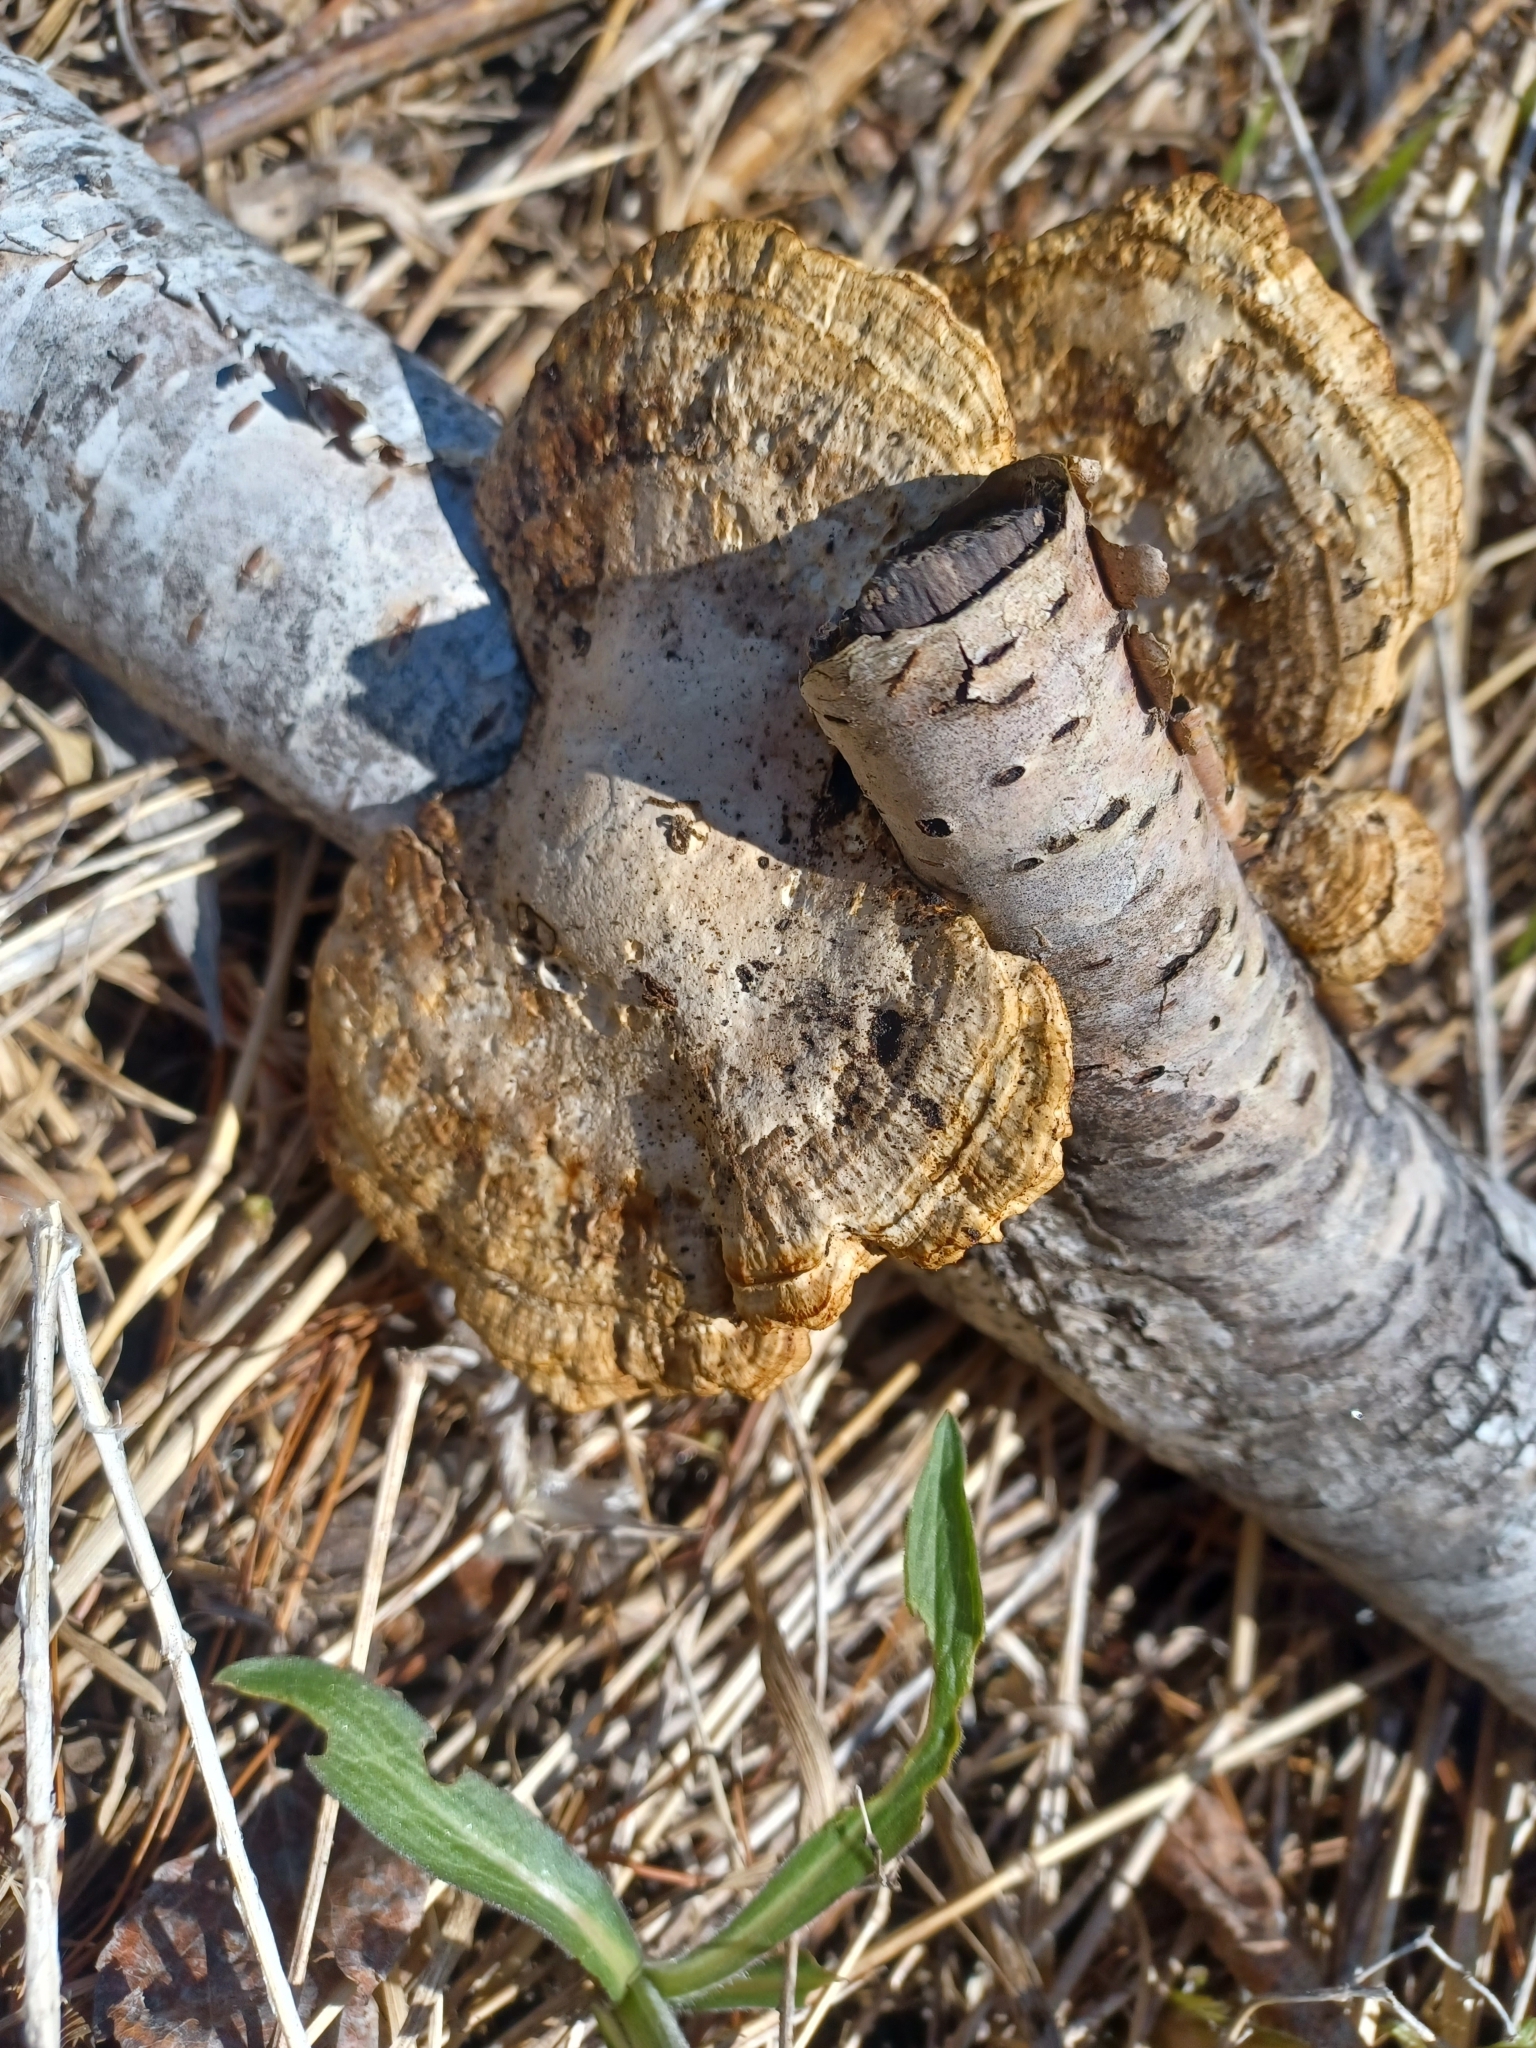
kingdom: Fungi
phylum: Basidiomycota
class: Agaricomycetes
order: Polyporales
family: Polyporaceae
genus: Daedaleopsis
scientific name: Daedaleopsis confragosa
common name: Blushing bracket
